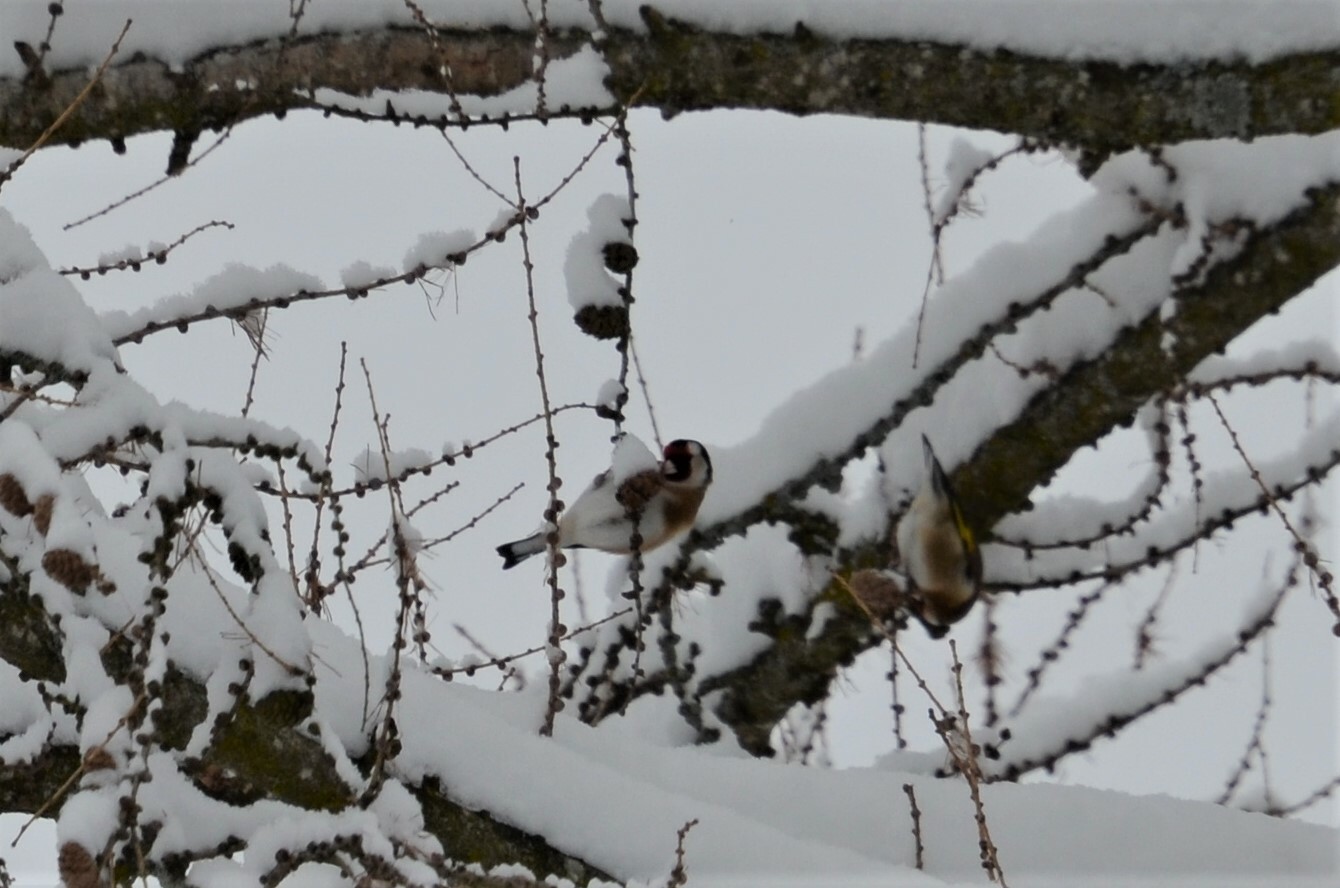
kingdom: Animalia
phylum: Chordata
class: Aves
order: Passeriformes
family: Fringillidae
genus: Carduelis
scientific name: Carduelis carduelis
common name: European goldfinch
